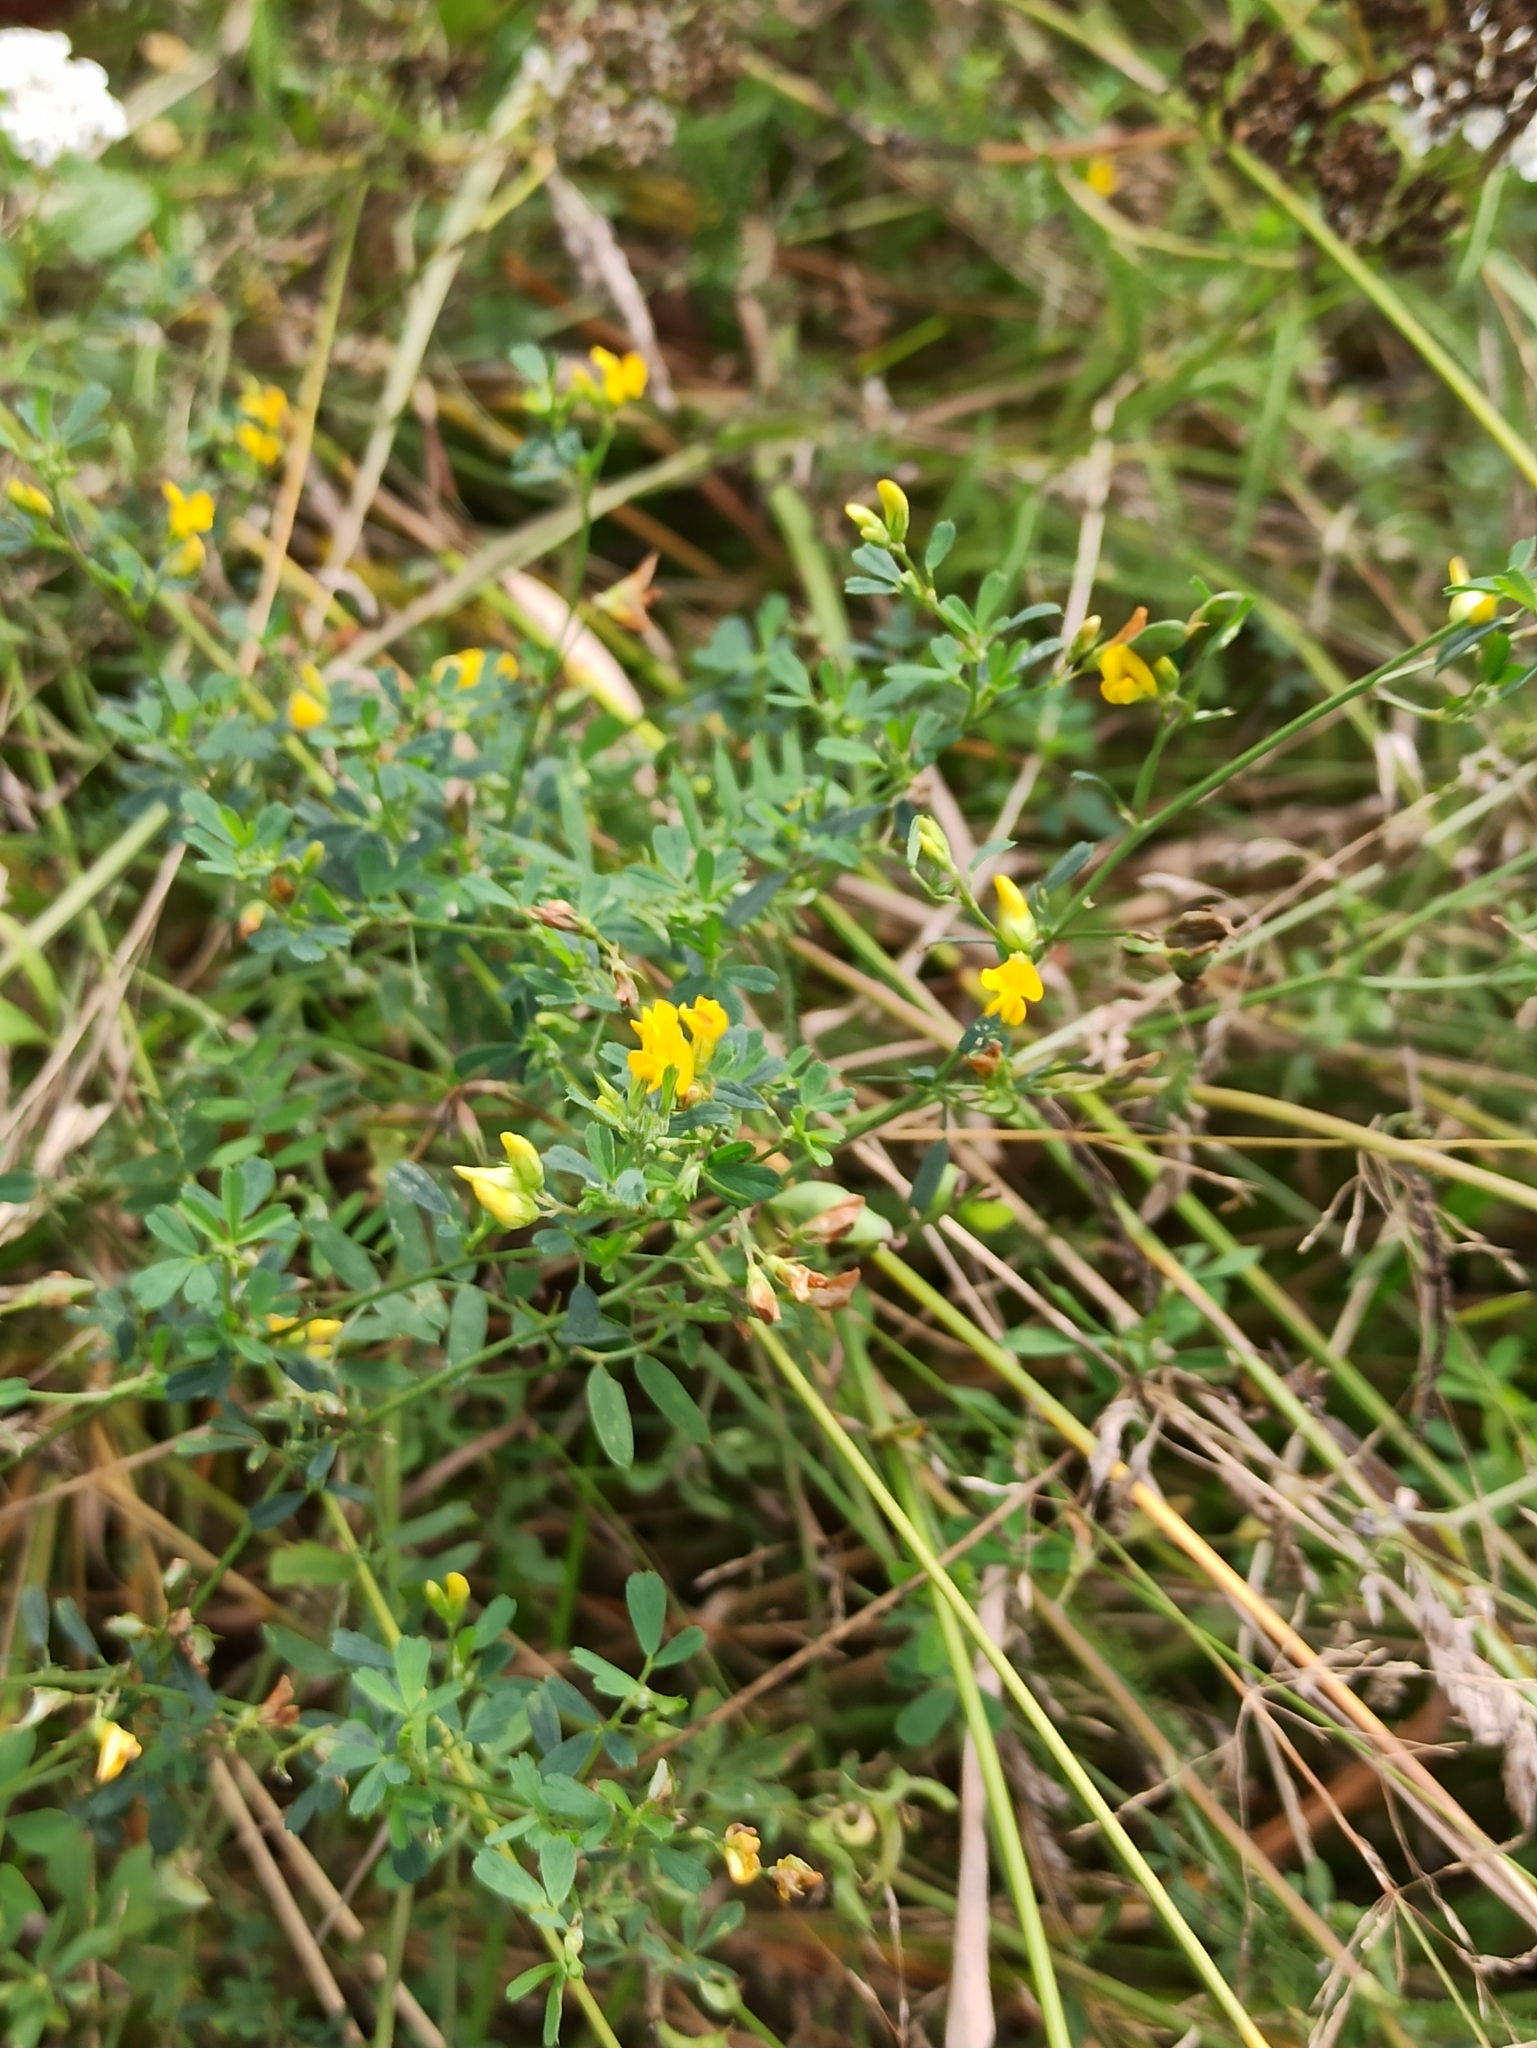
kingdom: Plantae
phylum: Tracheophyta
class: Magnoliopsida
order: Fabales
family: Fabaceae
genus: Medicago
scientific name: Medicago falcata
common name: Sickle medick
